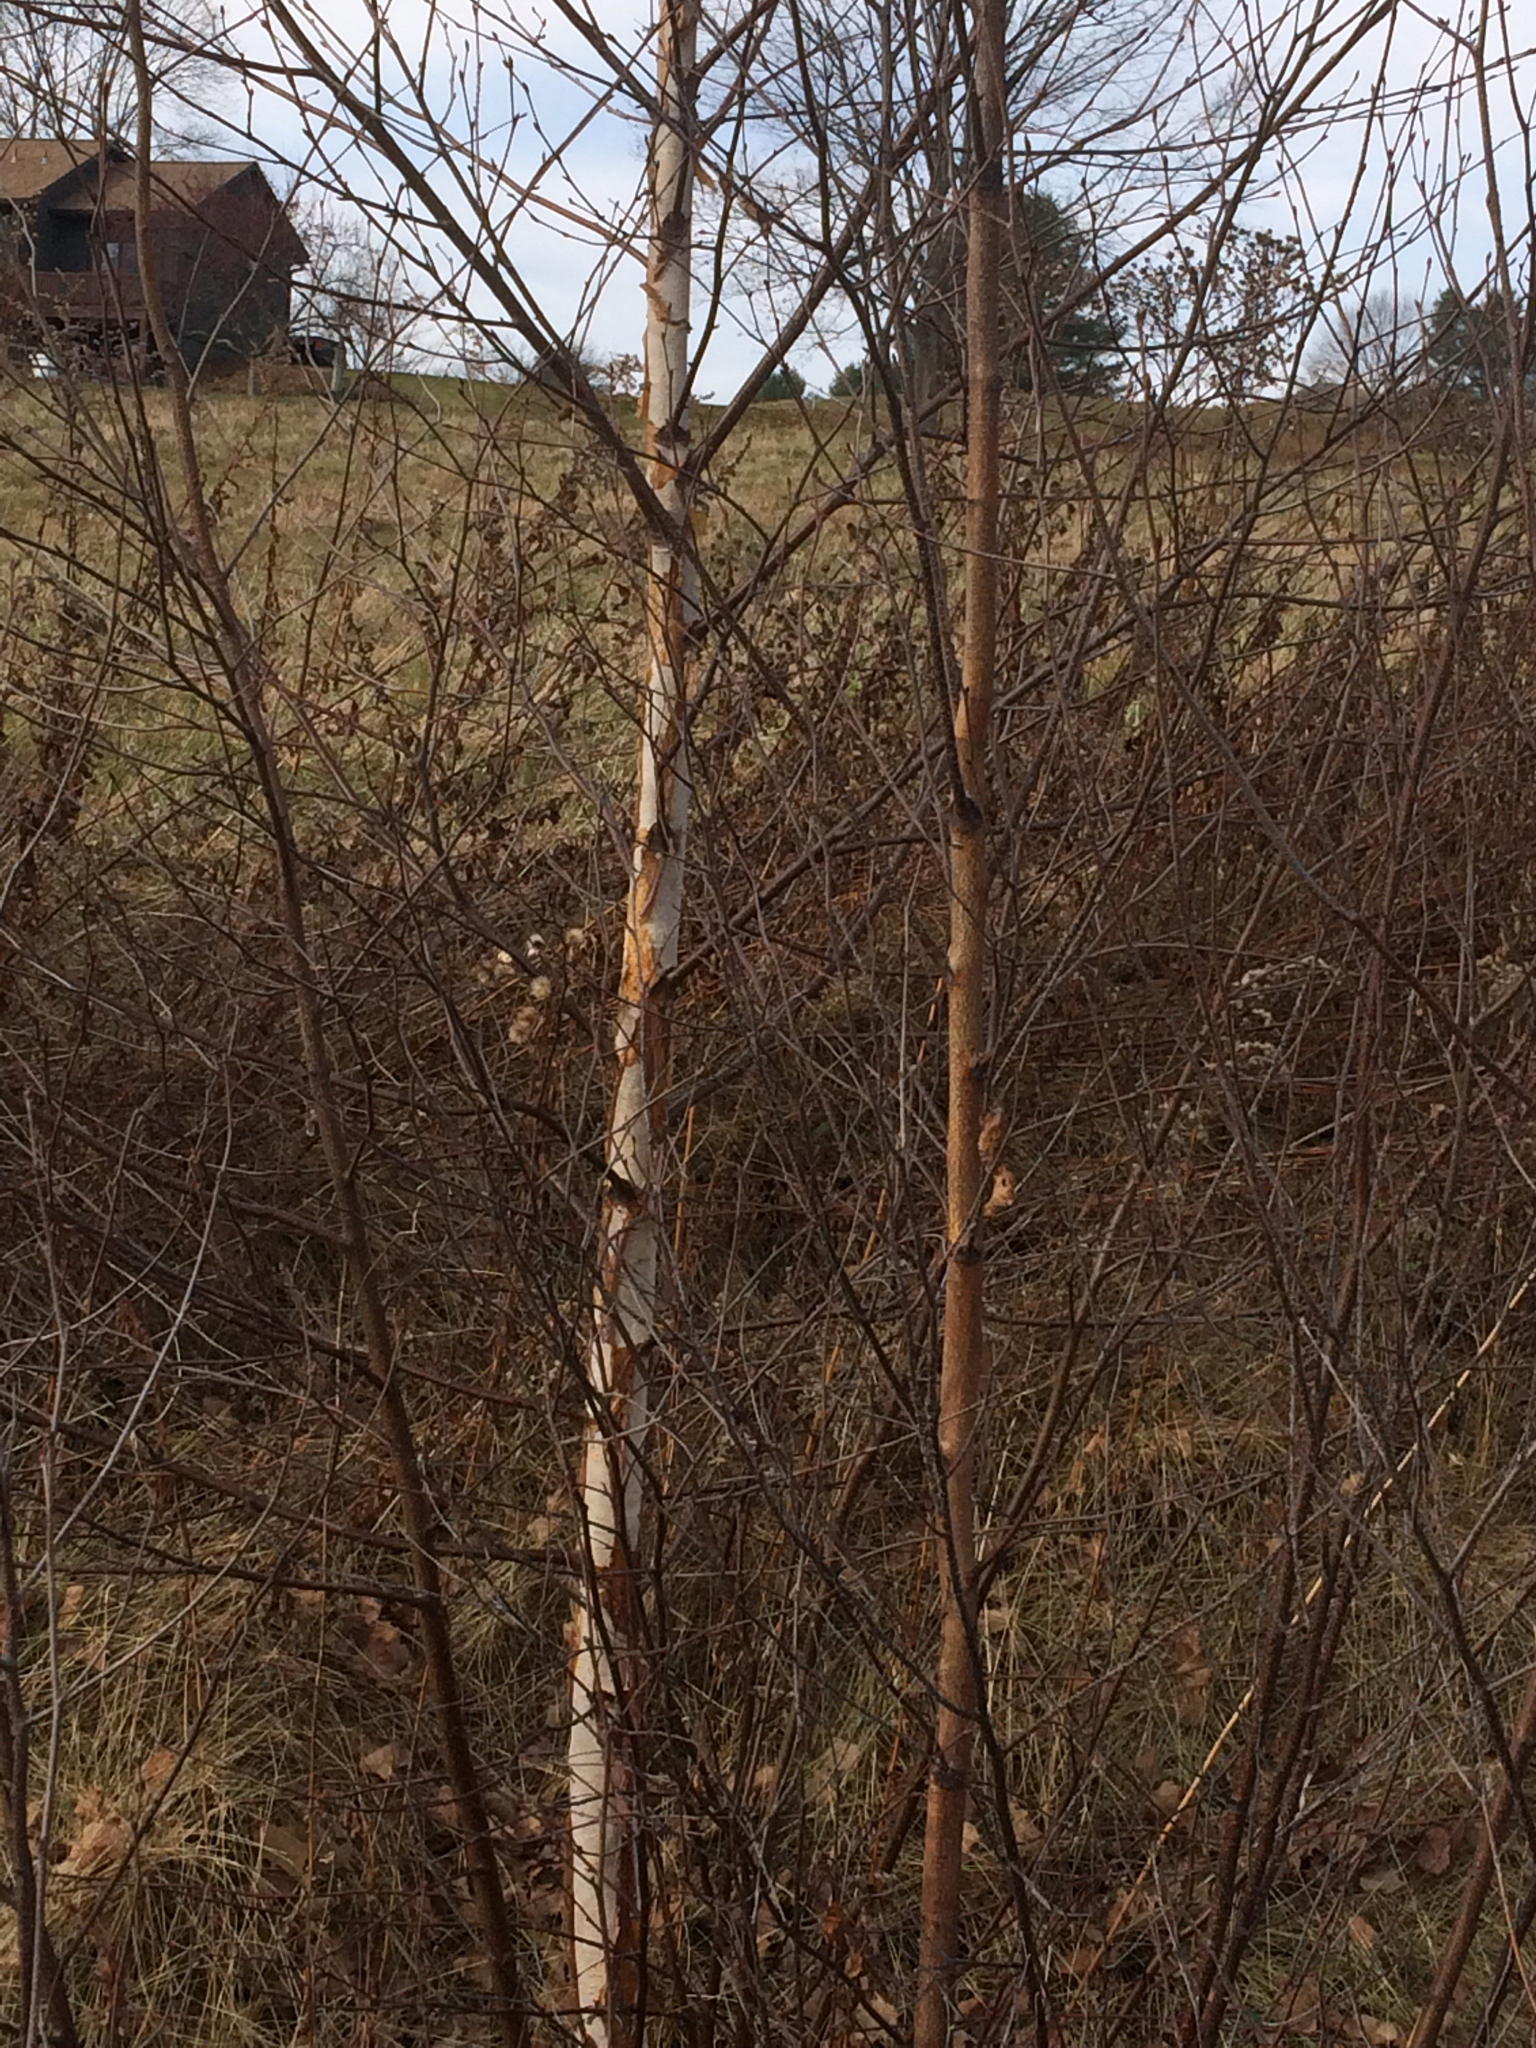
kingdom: Plantae
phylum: Tracheophyta
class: Magnoliopsida
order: Fagales
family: Betulaceae
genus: Betula
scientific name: Betula papyrifera
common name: Paper birch
